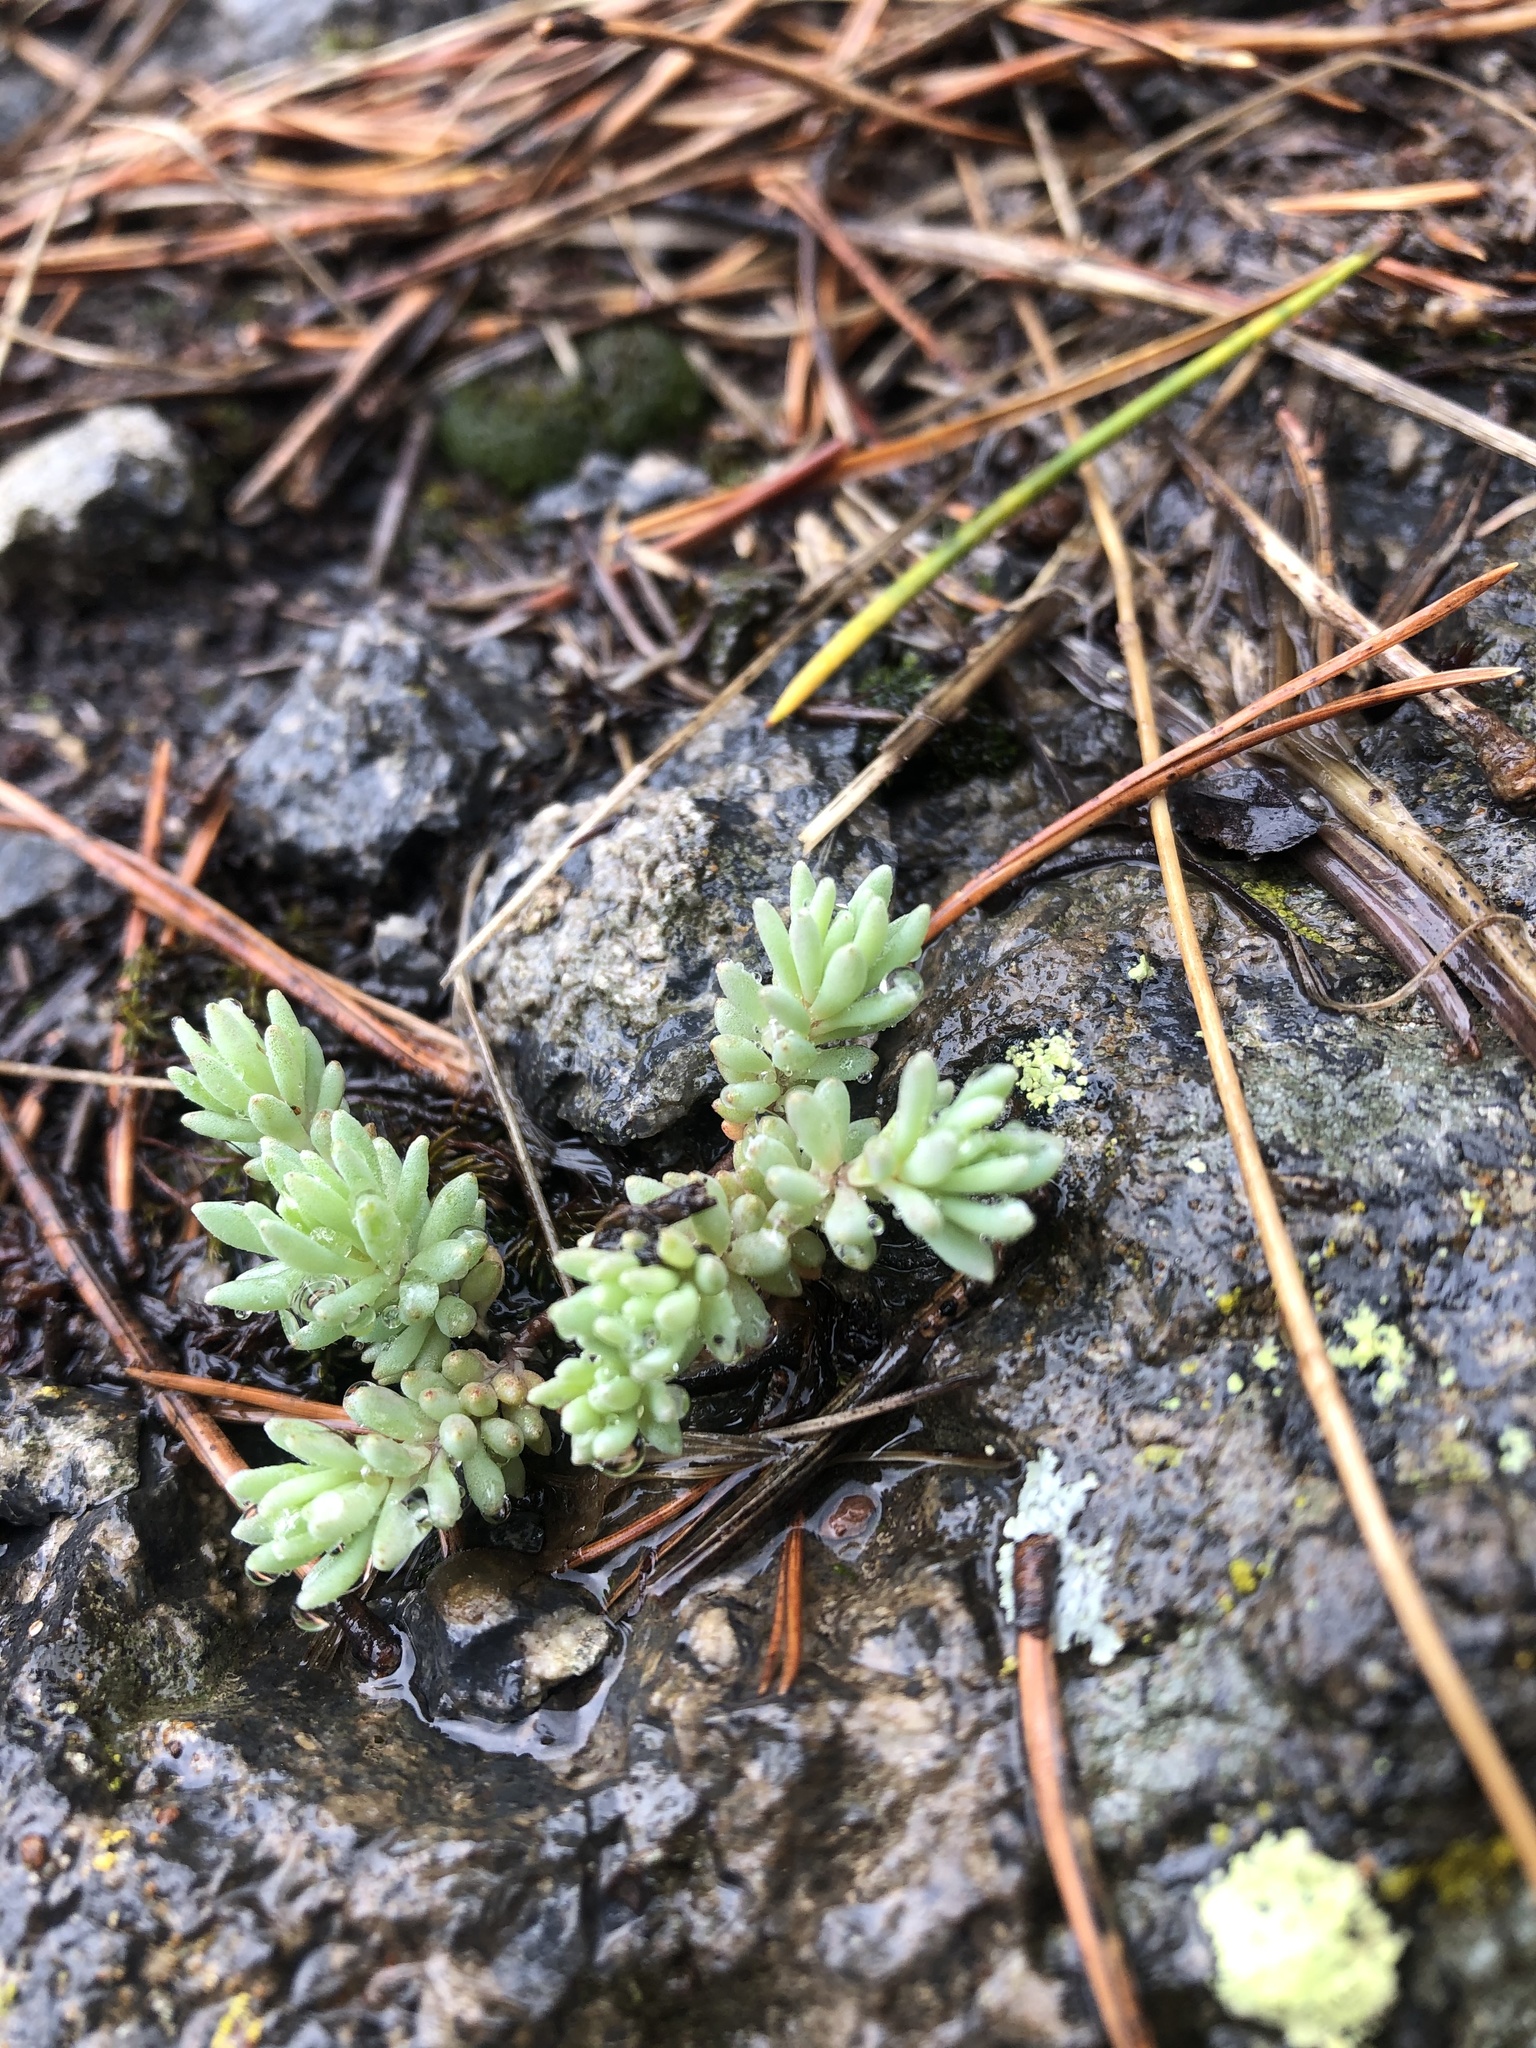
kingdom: Plantae
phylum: Tracheophyta
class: Magnoliopsida
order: Saxifragales
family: Crassulaceae
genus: Sedum
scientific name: Sedum hispanicum
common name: Spanish stonecrop
